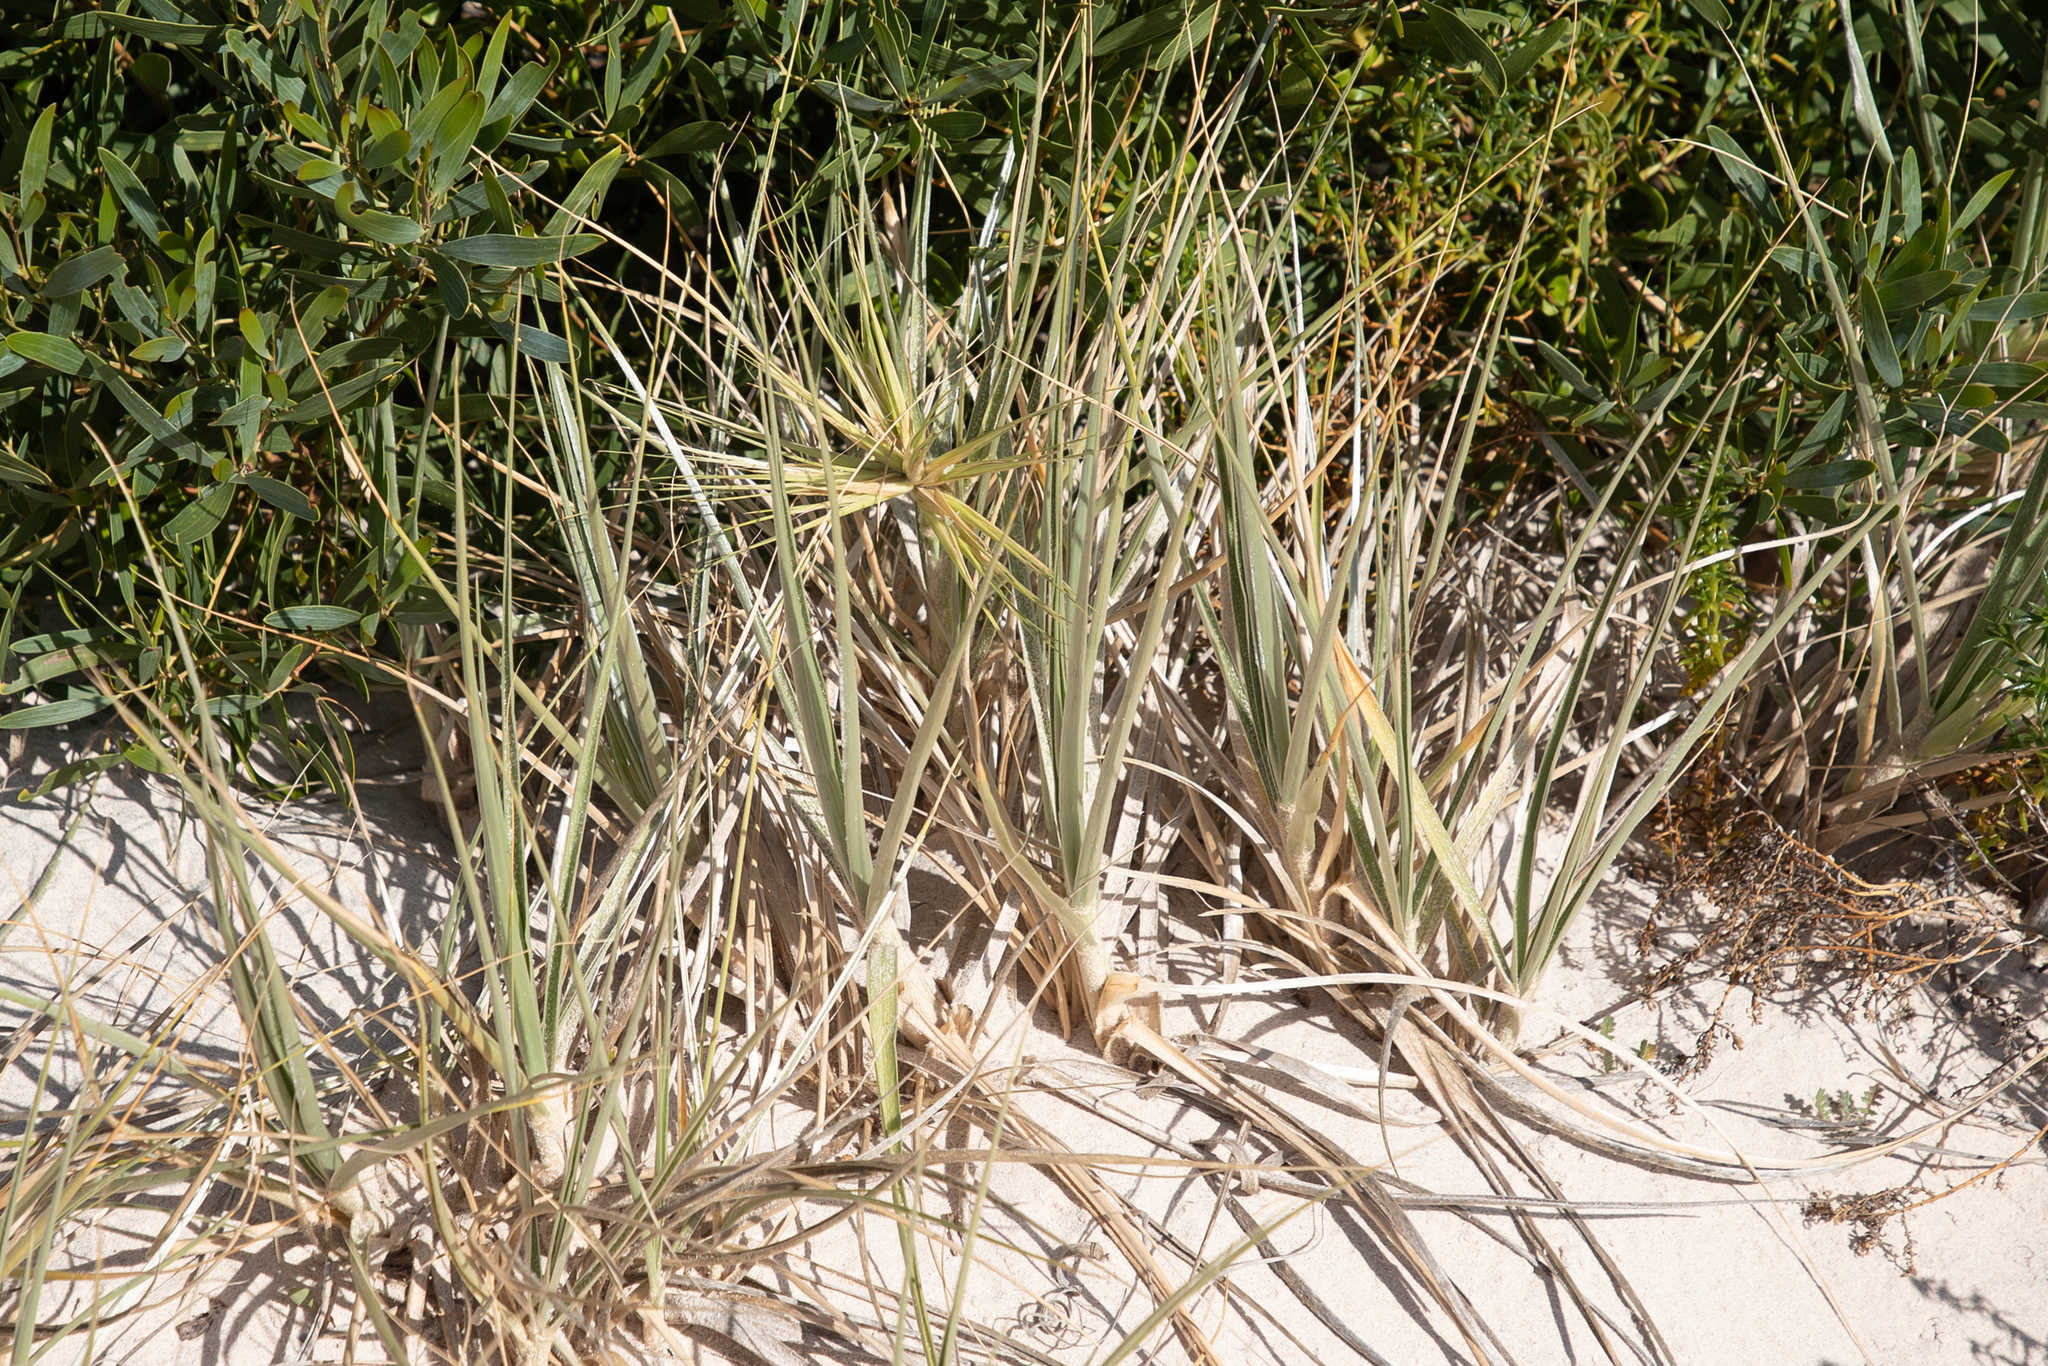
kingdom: Plantae
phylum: Tracheophyta
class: Liliopsida
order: Poales
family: Poaceae
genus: Spinifex
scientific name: Spinifex hirsutus
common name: Hairy spinifex
